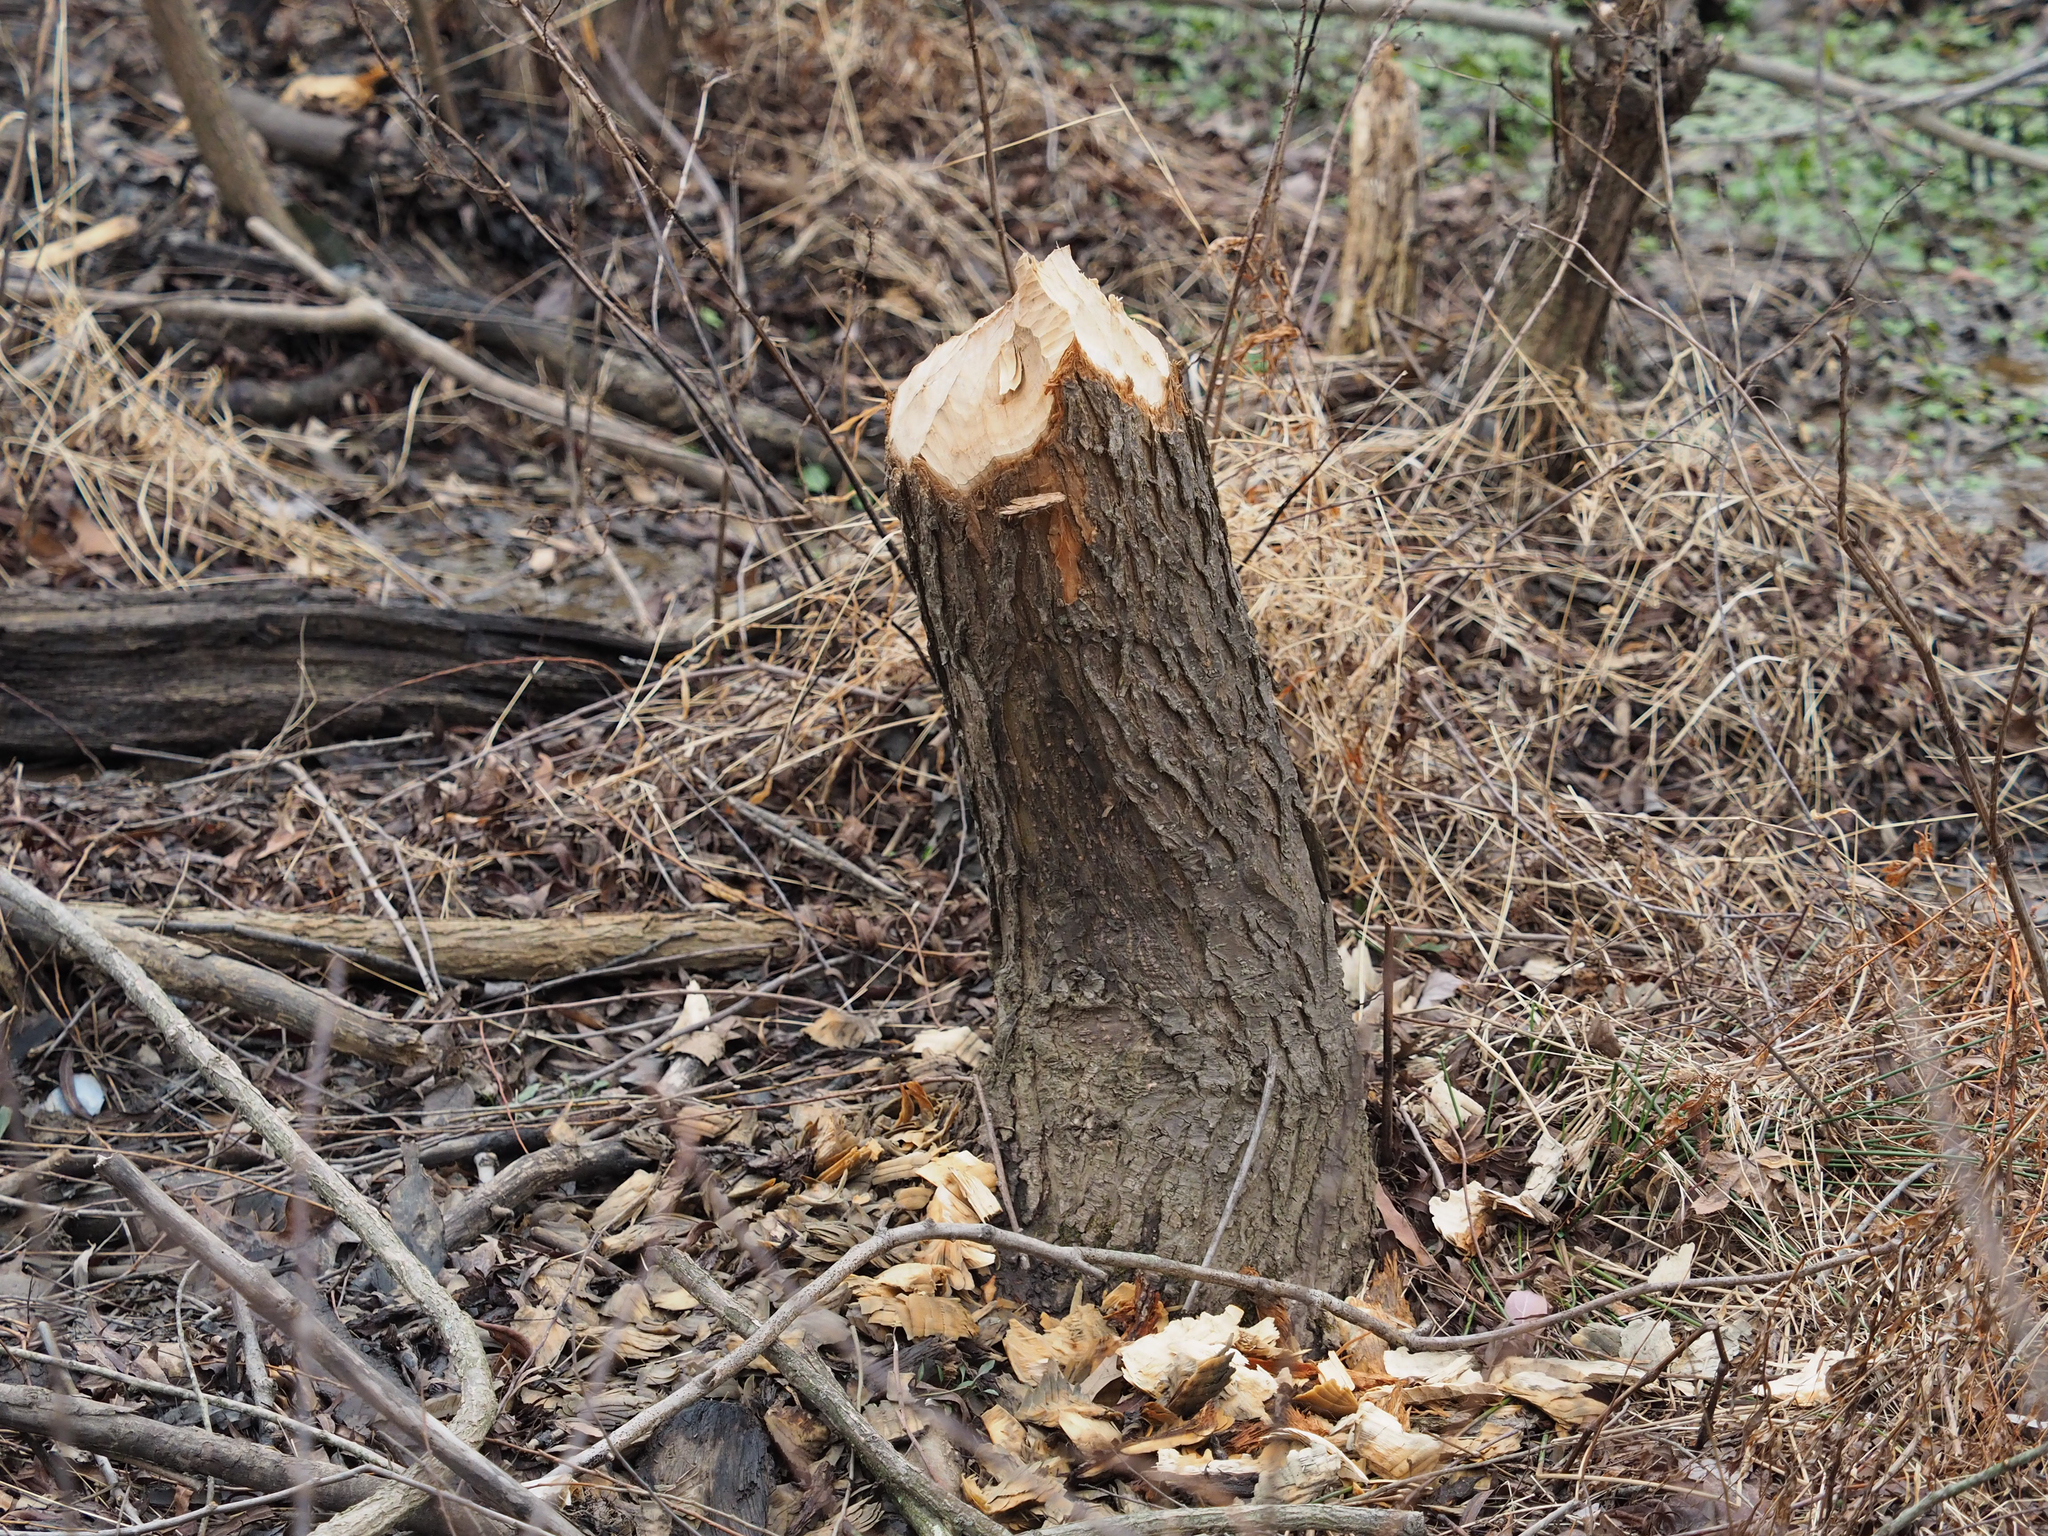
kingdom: Animalia
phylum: Chordata
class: Mammalia
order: Rodentia
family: Castoridae
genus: Castor
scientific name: Castor canadensis
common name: American beaver
